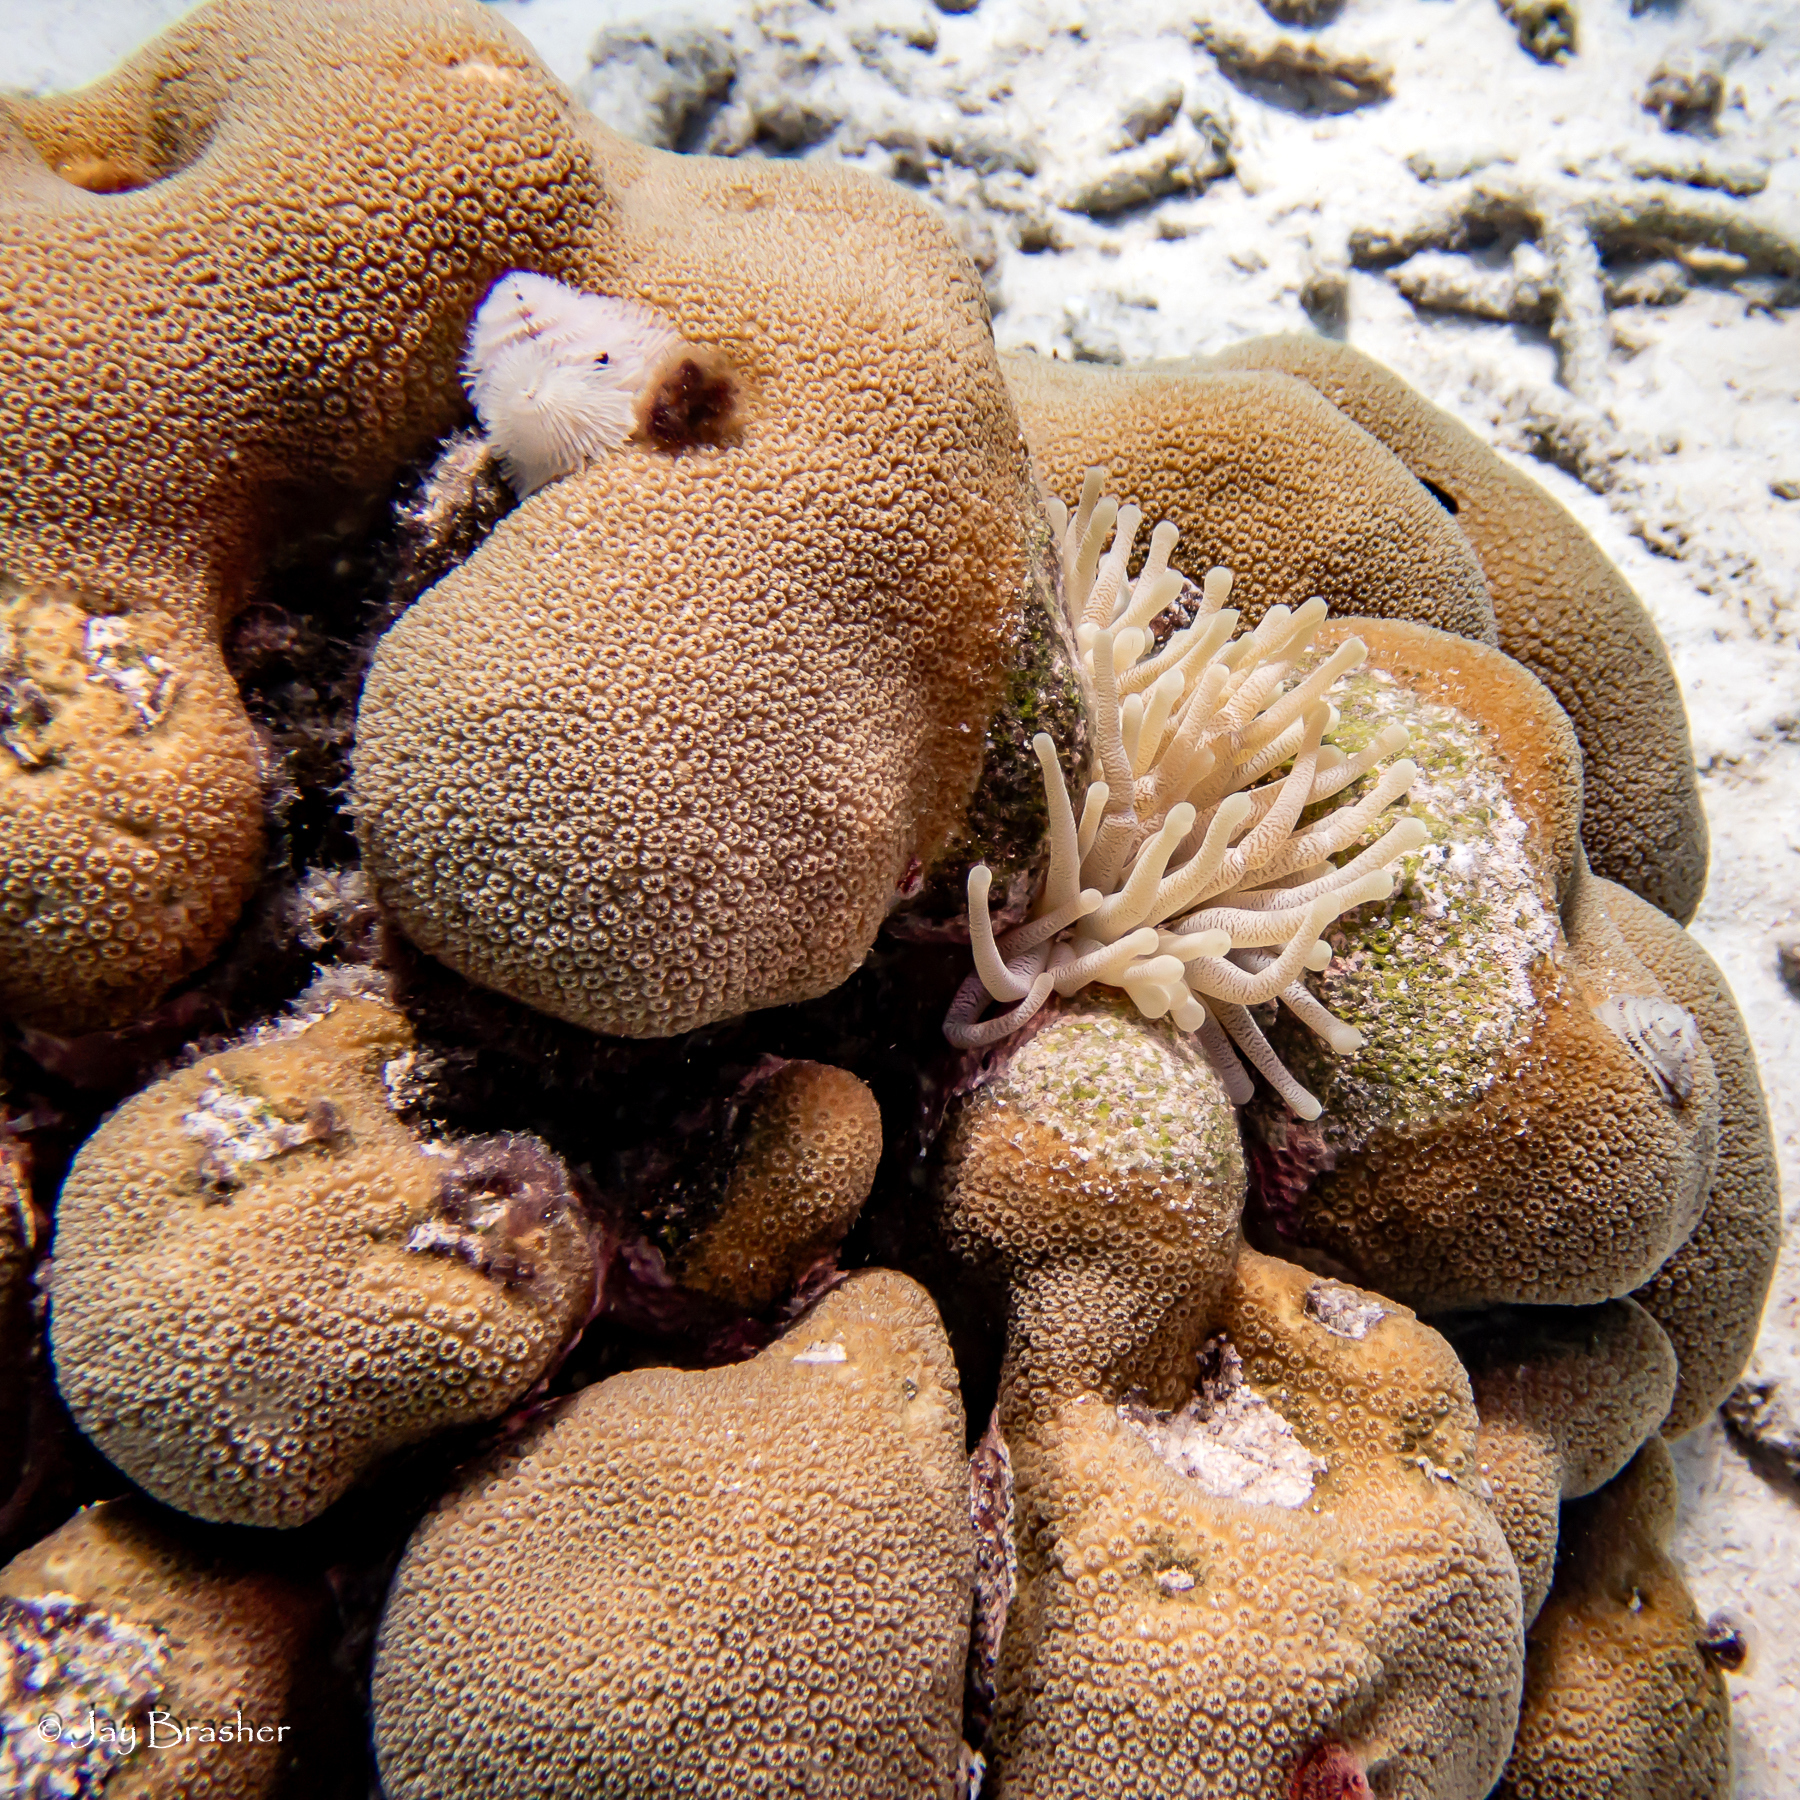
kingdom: Animalia
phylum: Cnidaria
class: Anthozoa
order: Scleractinia
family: Merulinidae
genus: Orbicella
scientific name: Orbicella annularis
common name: Boulder star coral
